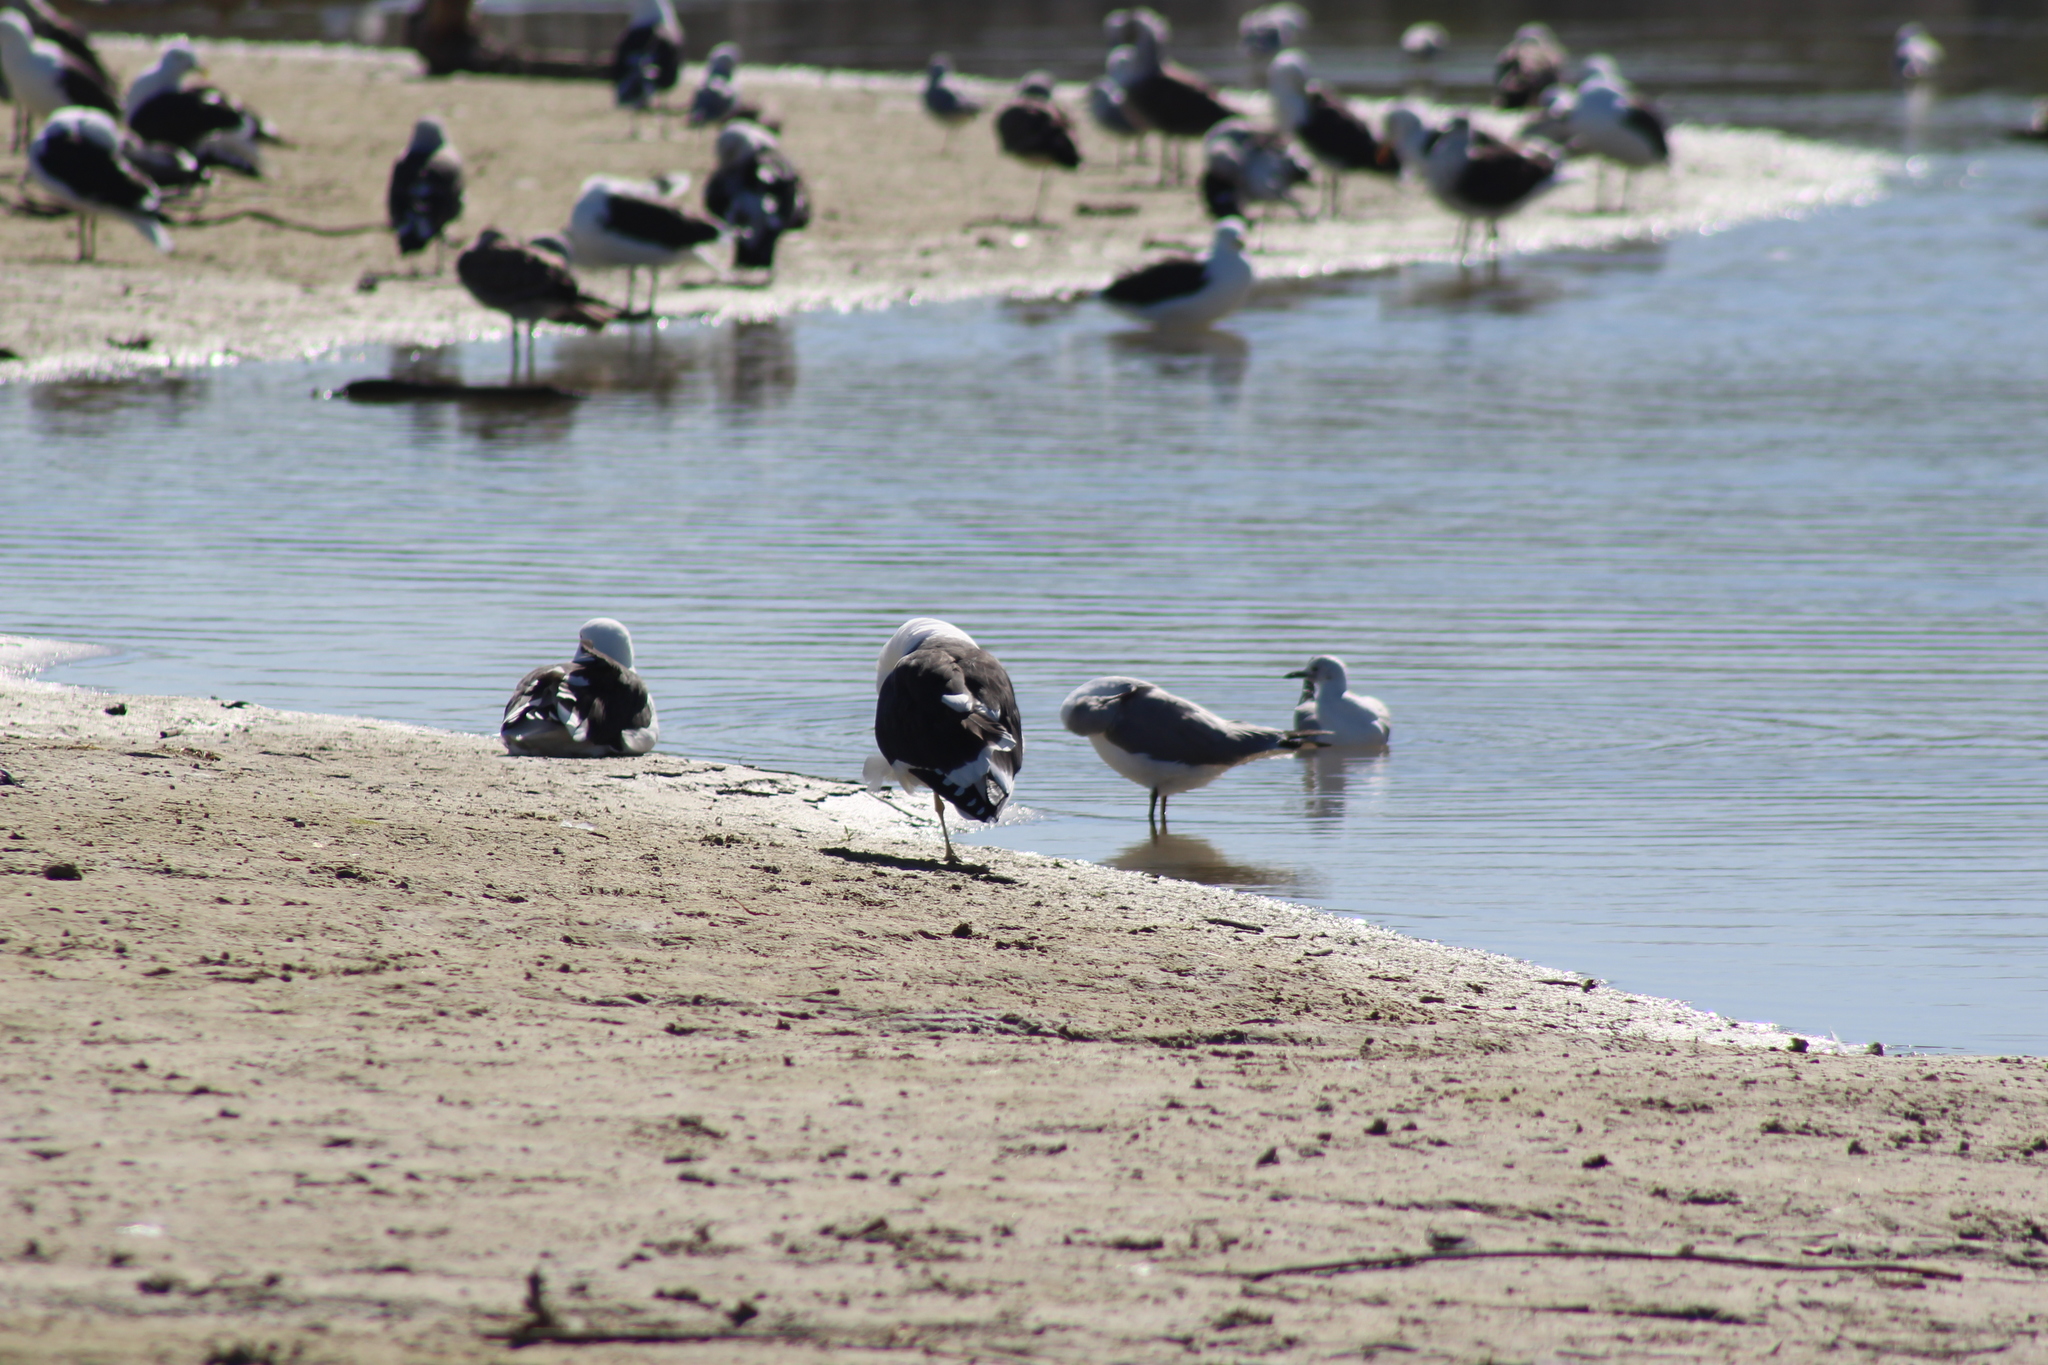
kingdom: Animalia
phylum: Chordata
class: Aves
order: Charadriiformes
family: Laridae
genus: Chroicocephalus
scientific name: Chroicocephalus cirrocephalus
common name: Grey-headed gull
